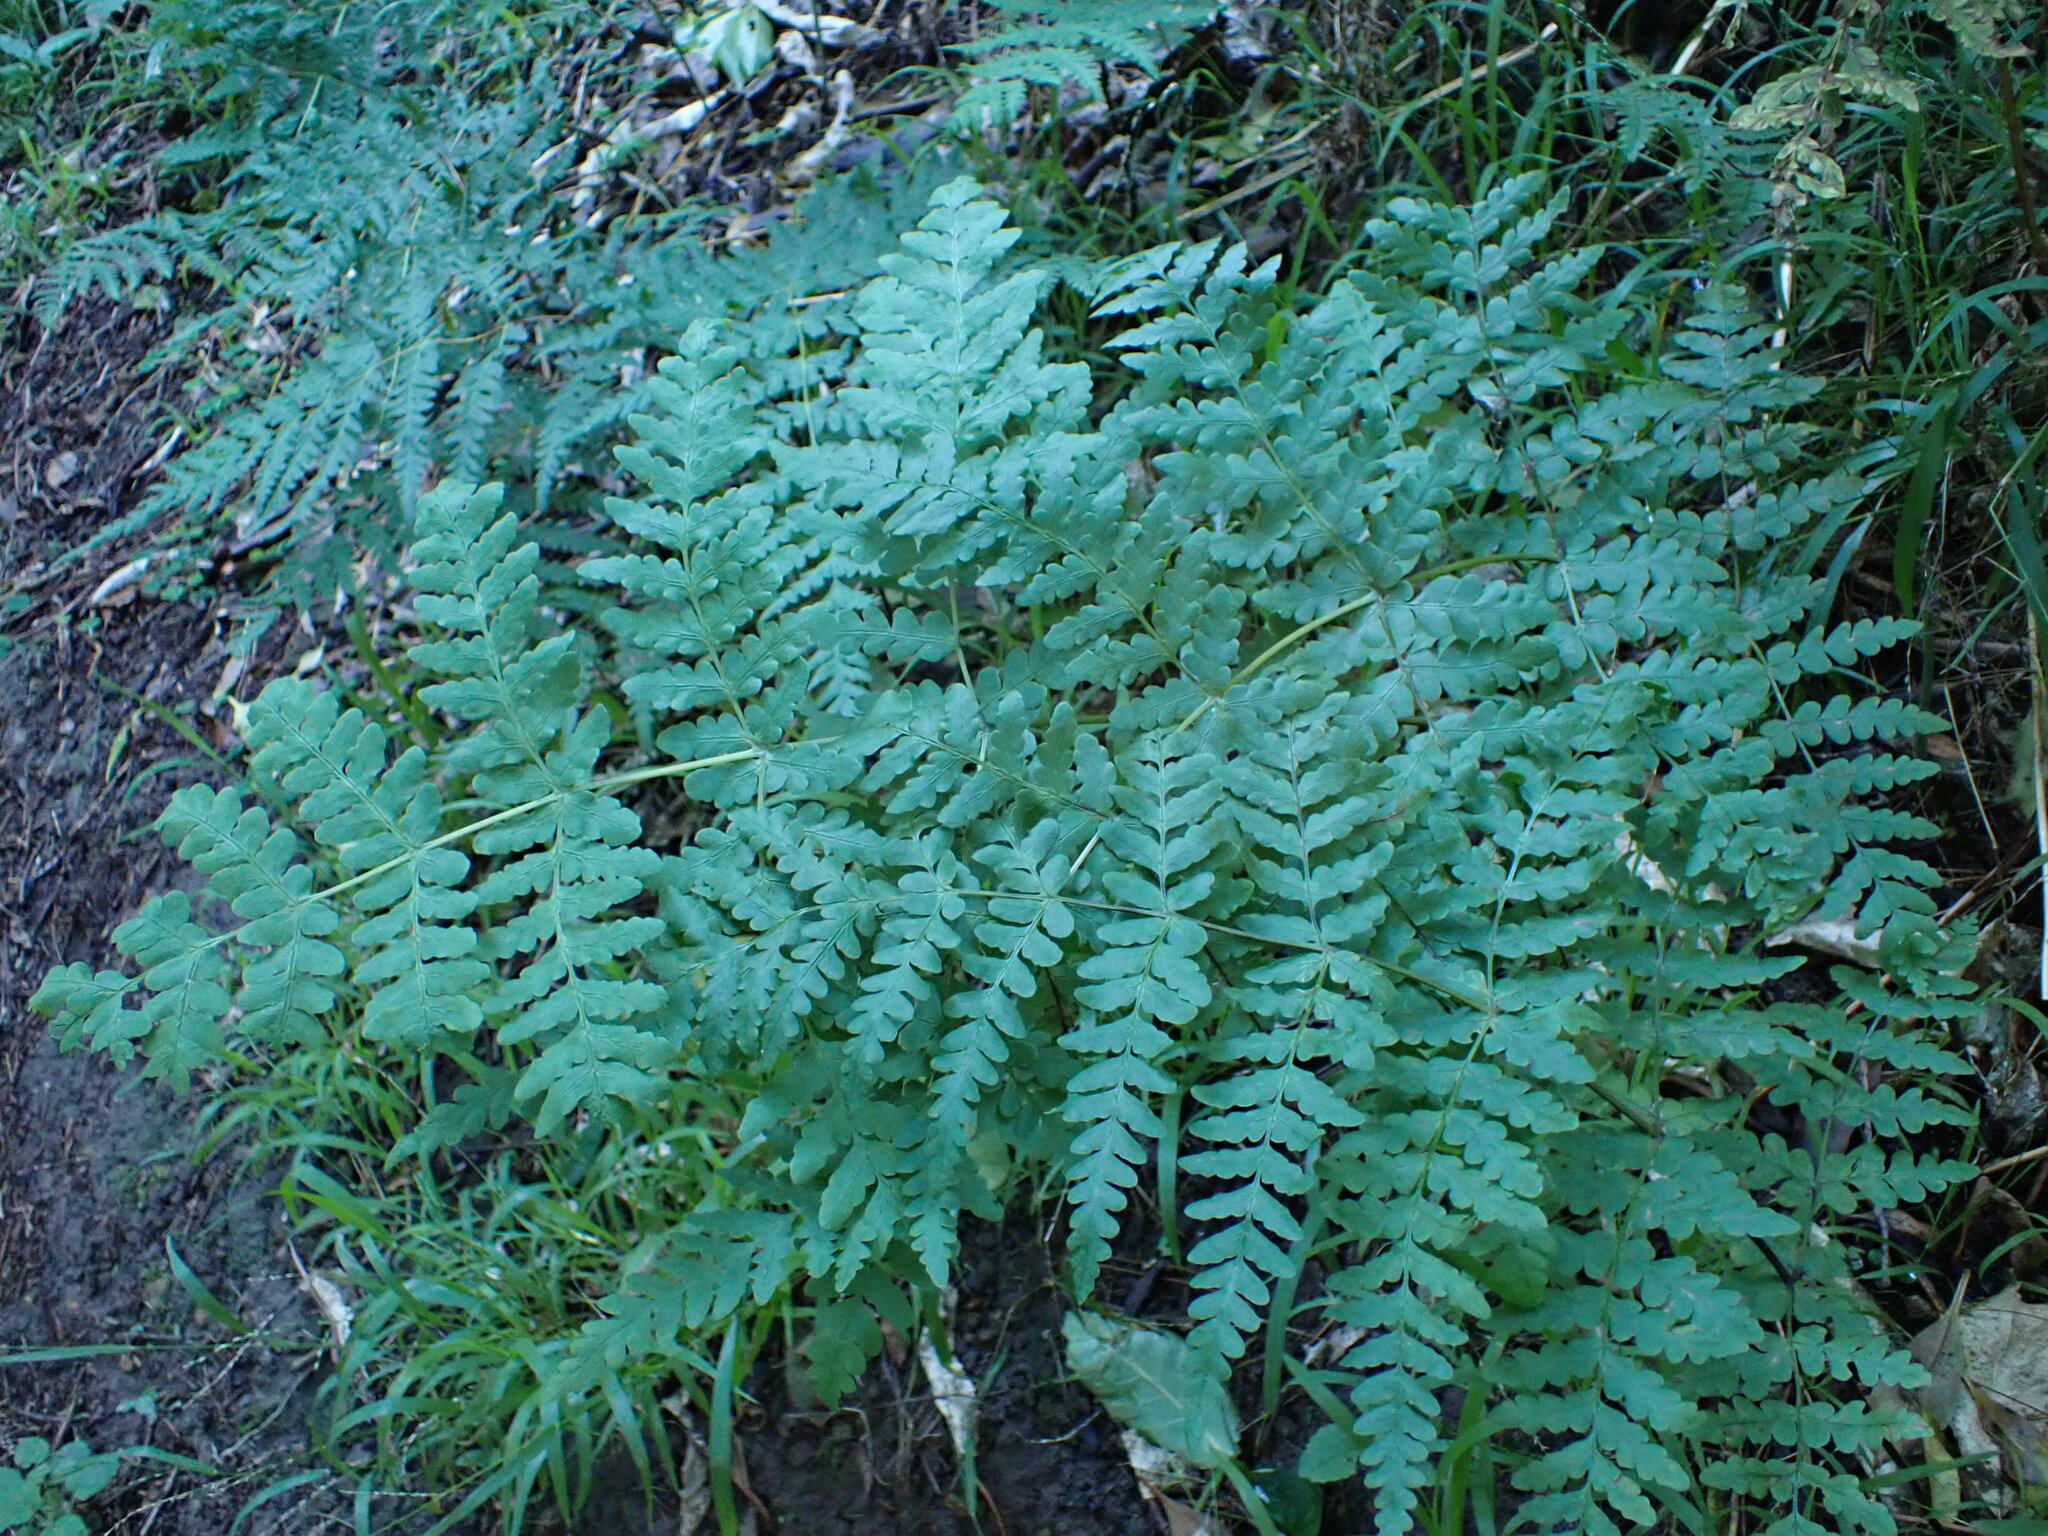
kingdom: Plantae
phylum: Tracheophyta
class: Polypodiopsida
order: Polypodiales
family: Dennstaedtiaceae
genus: Histiopteris
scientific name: Histiopteris incisa
